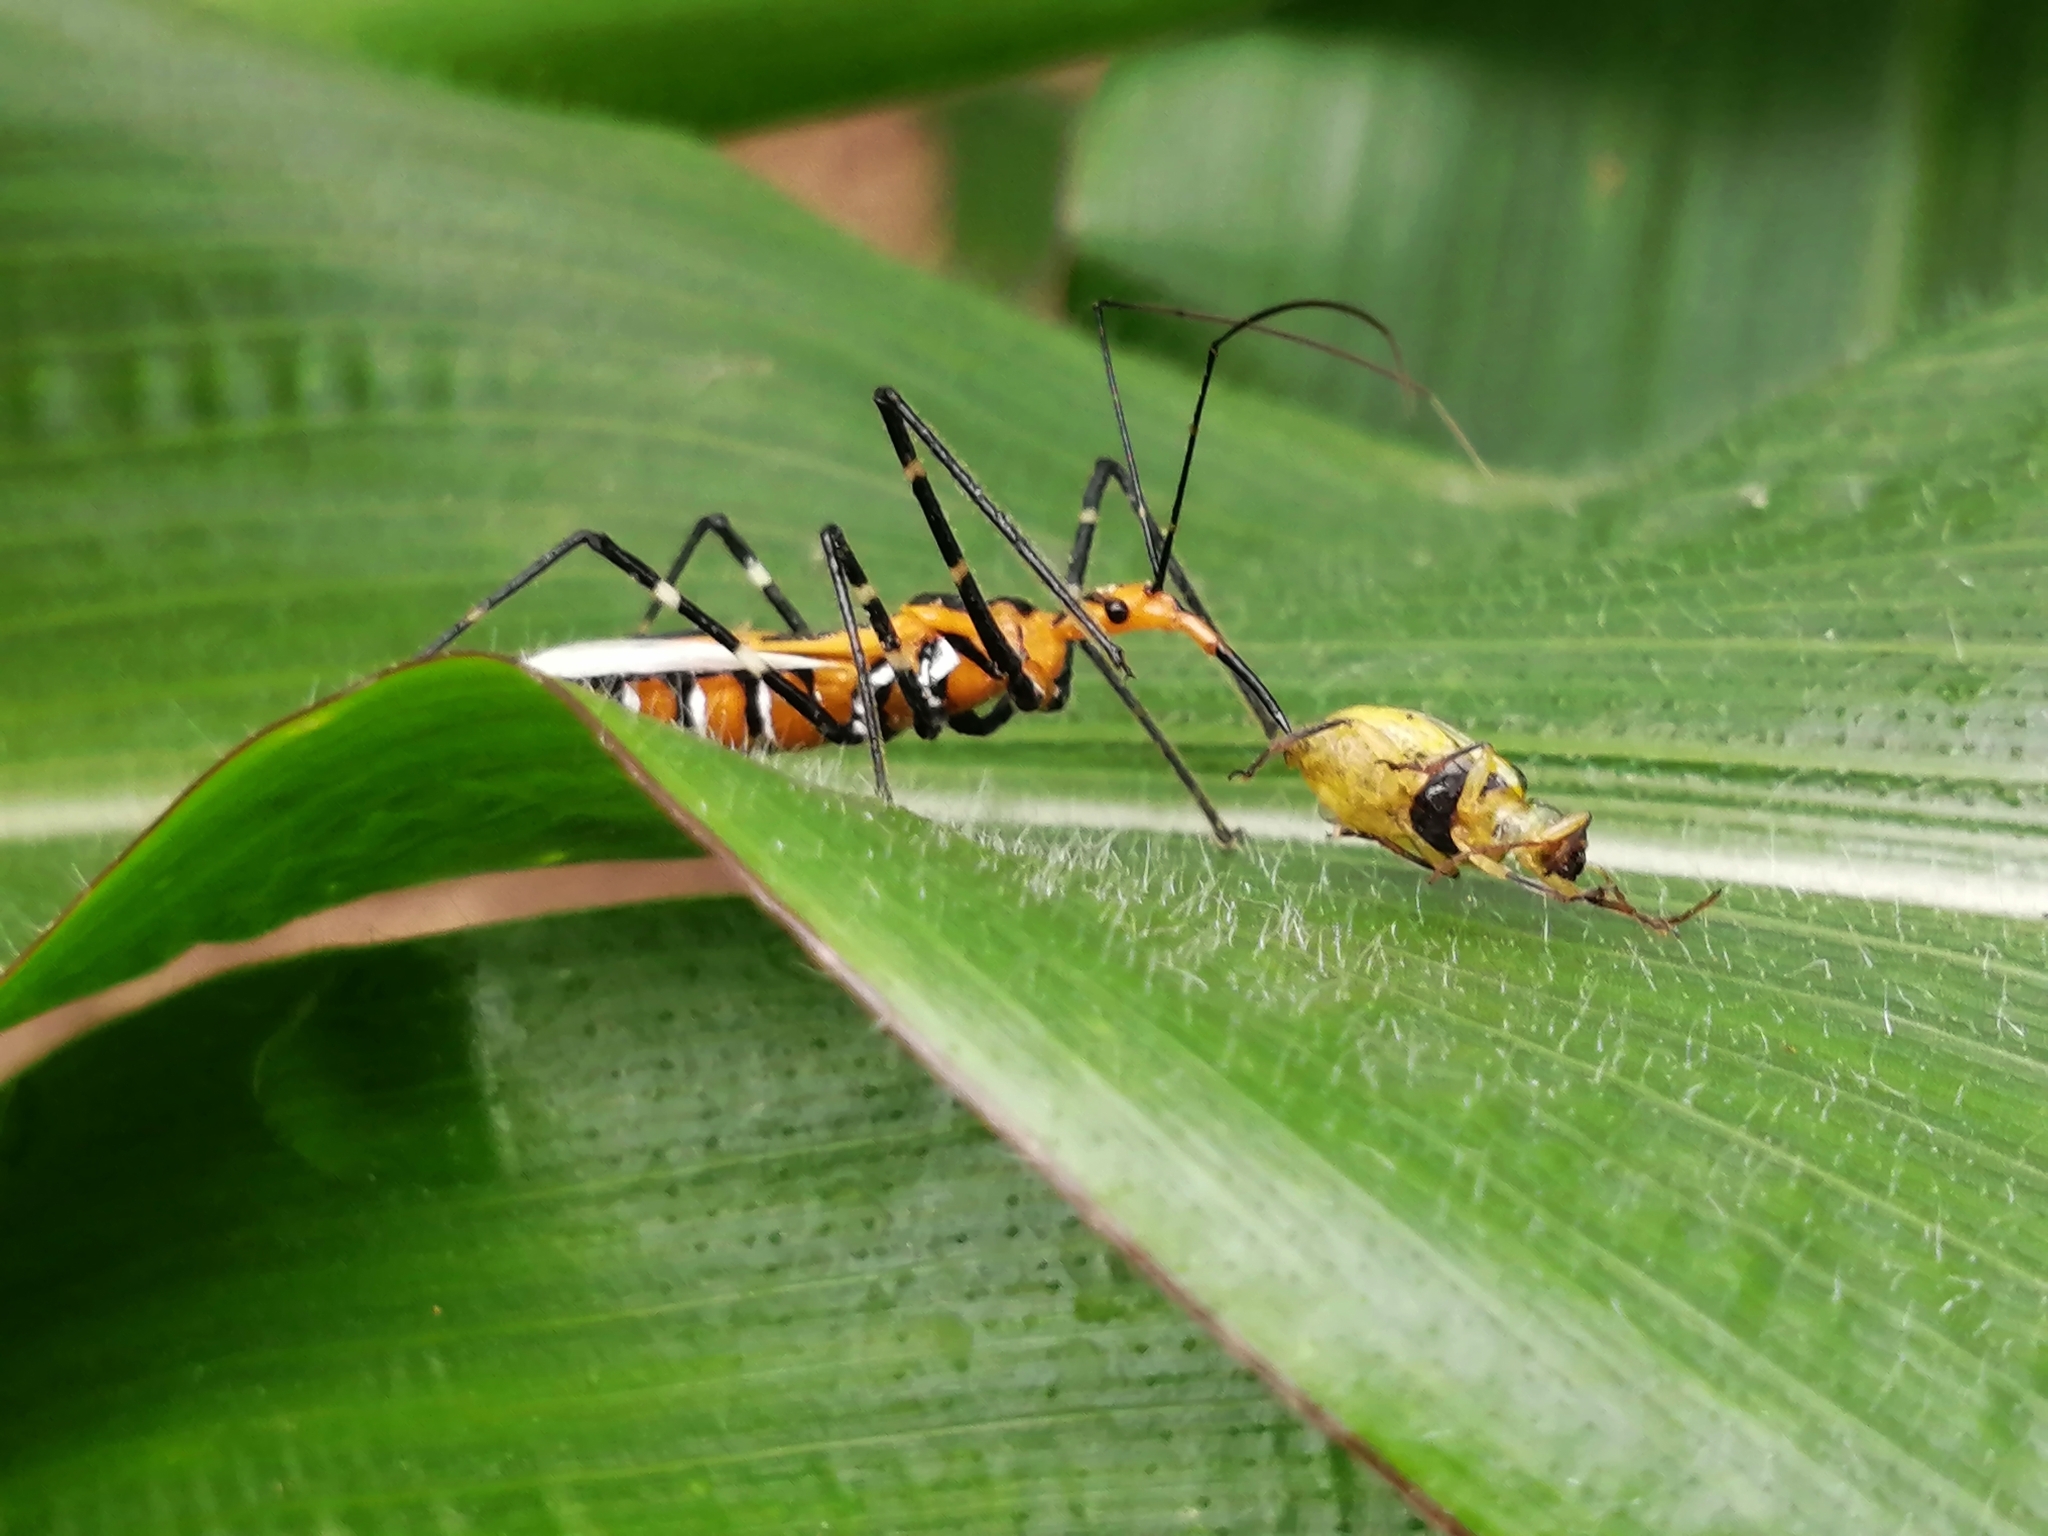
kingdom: Animalia
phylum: Arthropoda
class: Insecta
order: Hemiptera
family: Reduviidae
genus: Zelus
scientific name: Zelus longipes
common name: Milkweed assassin bug
